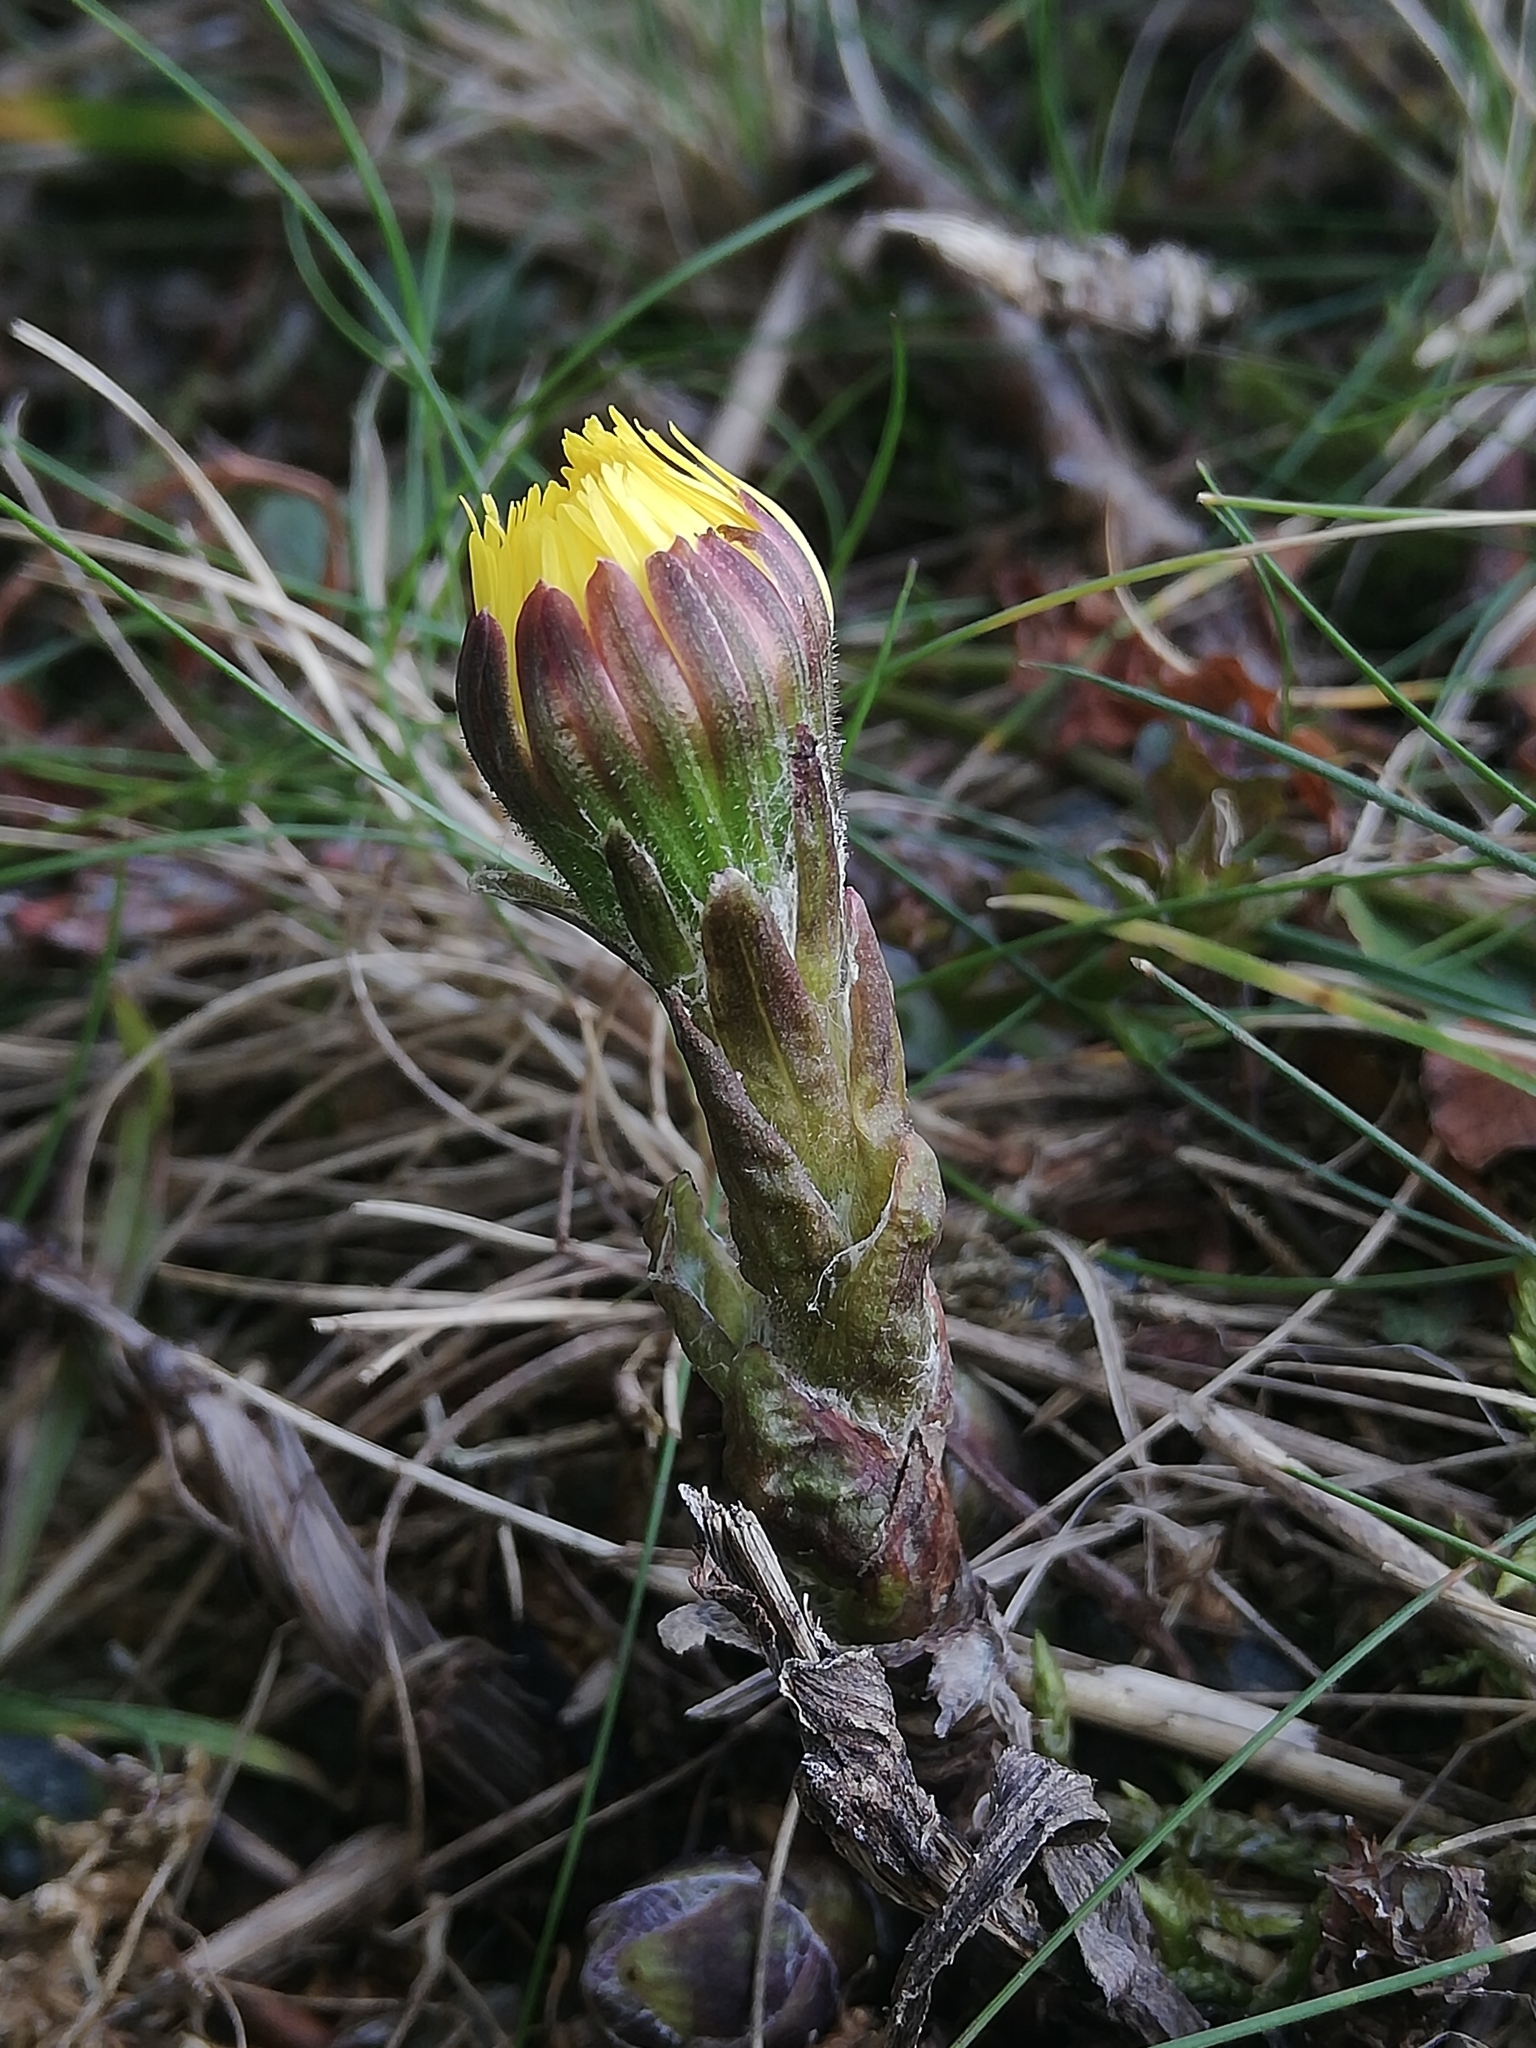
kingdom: Plantae
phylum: Tracheophyta
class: Magnoliopsida
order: Asterales
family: Asteraceae
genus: Tussilago
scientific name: Tussilago farfara
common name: Coltsfoot
